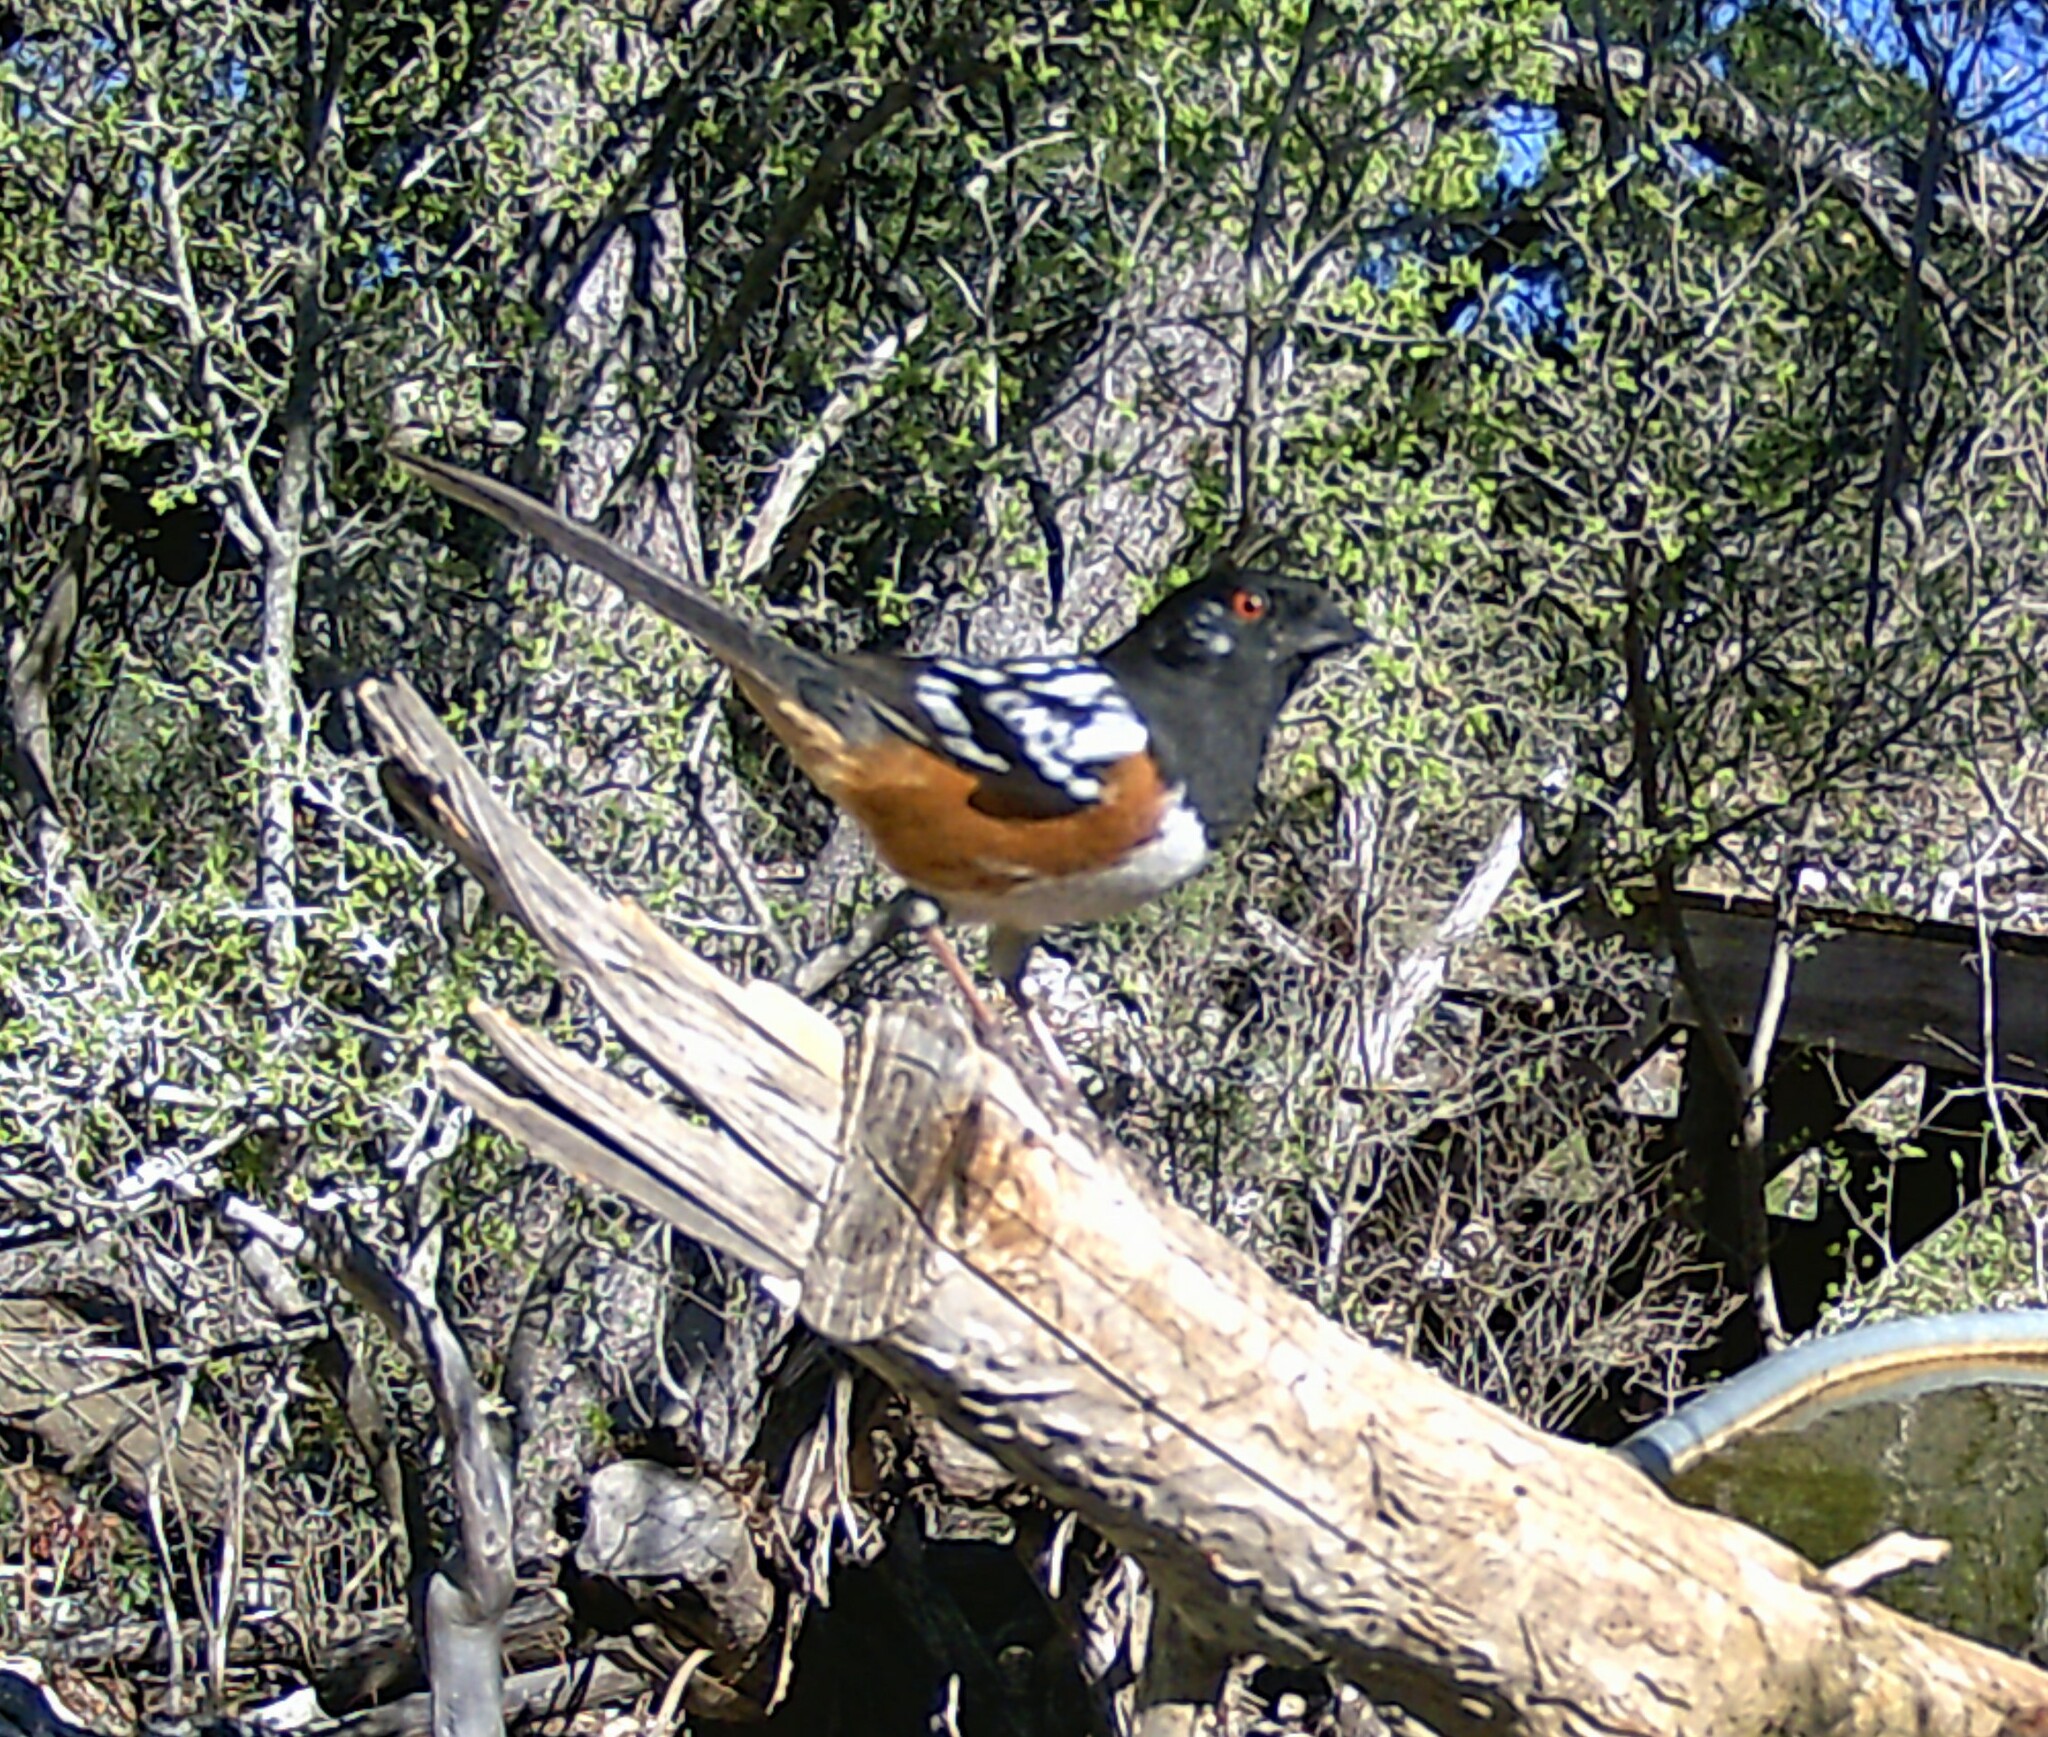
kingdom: Animalia
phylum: Chordata
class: Aves
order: Passeriformes
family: Passerellidae
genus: Pipilo
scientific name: Pipilo maculatus
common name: Spotted towhee
